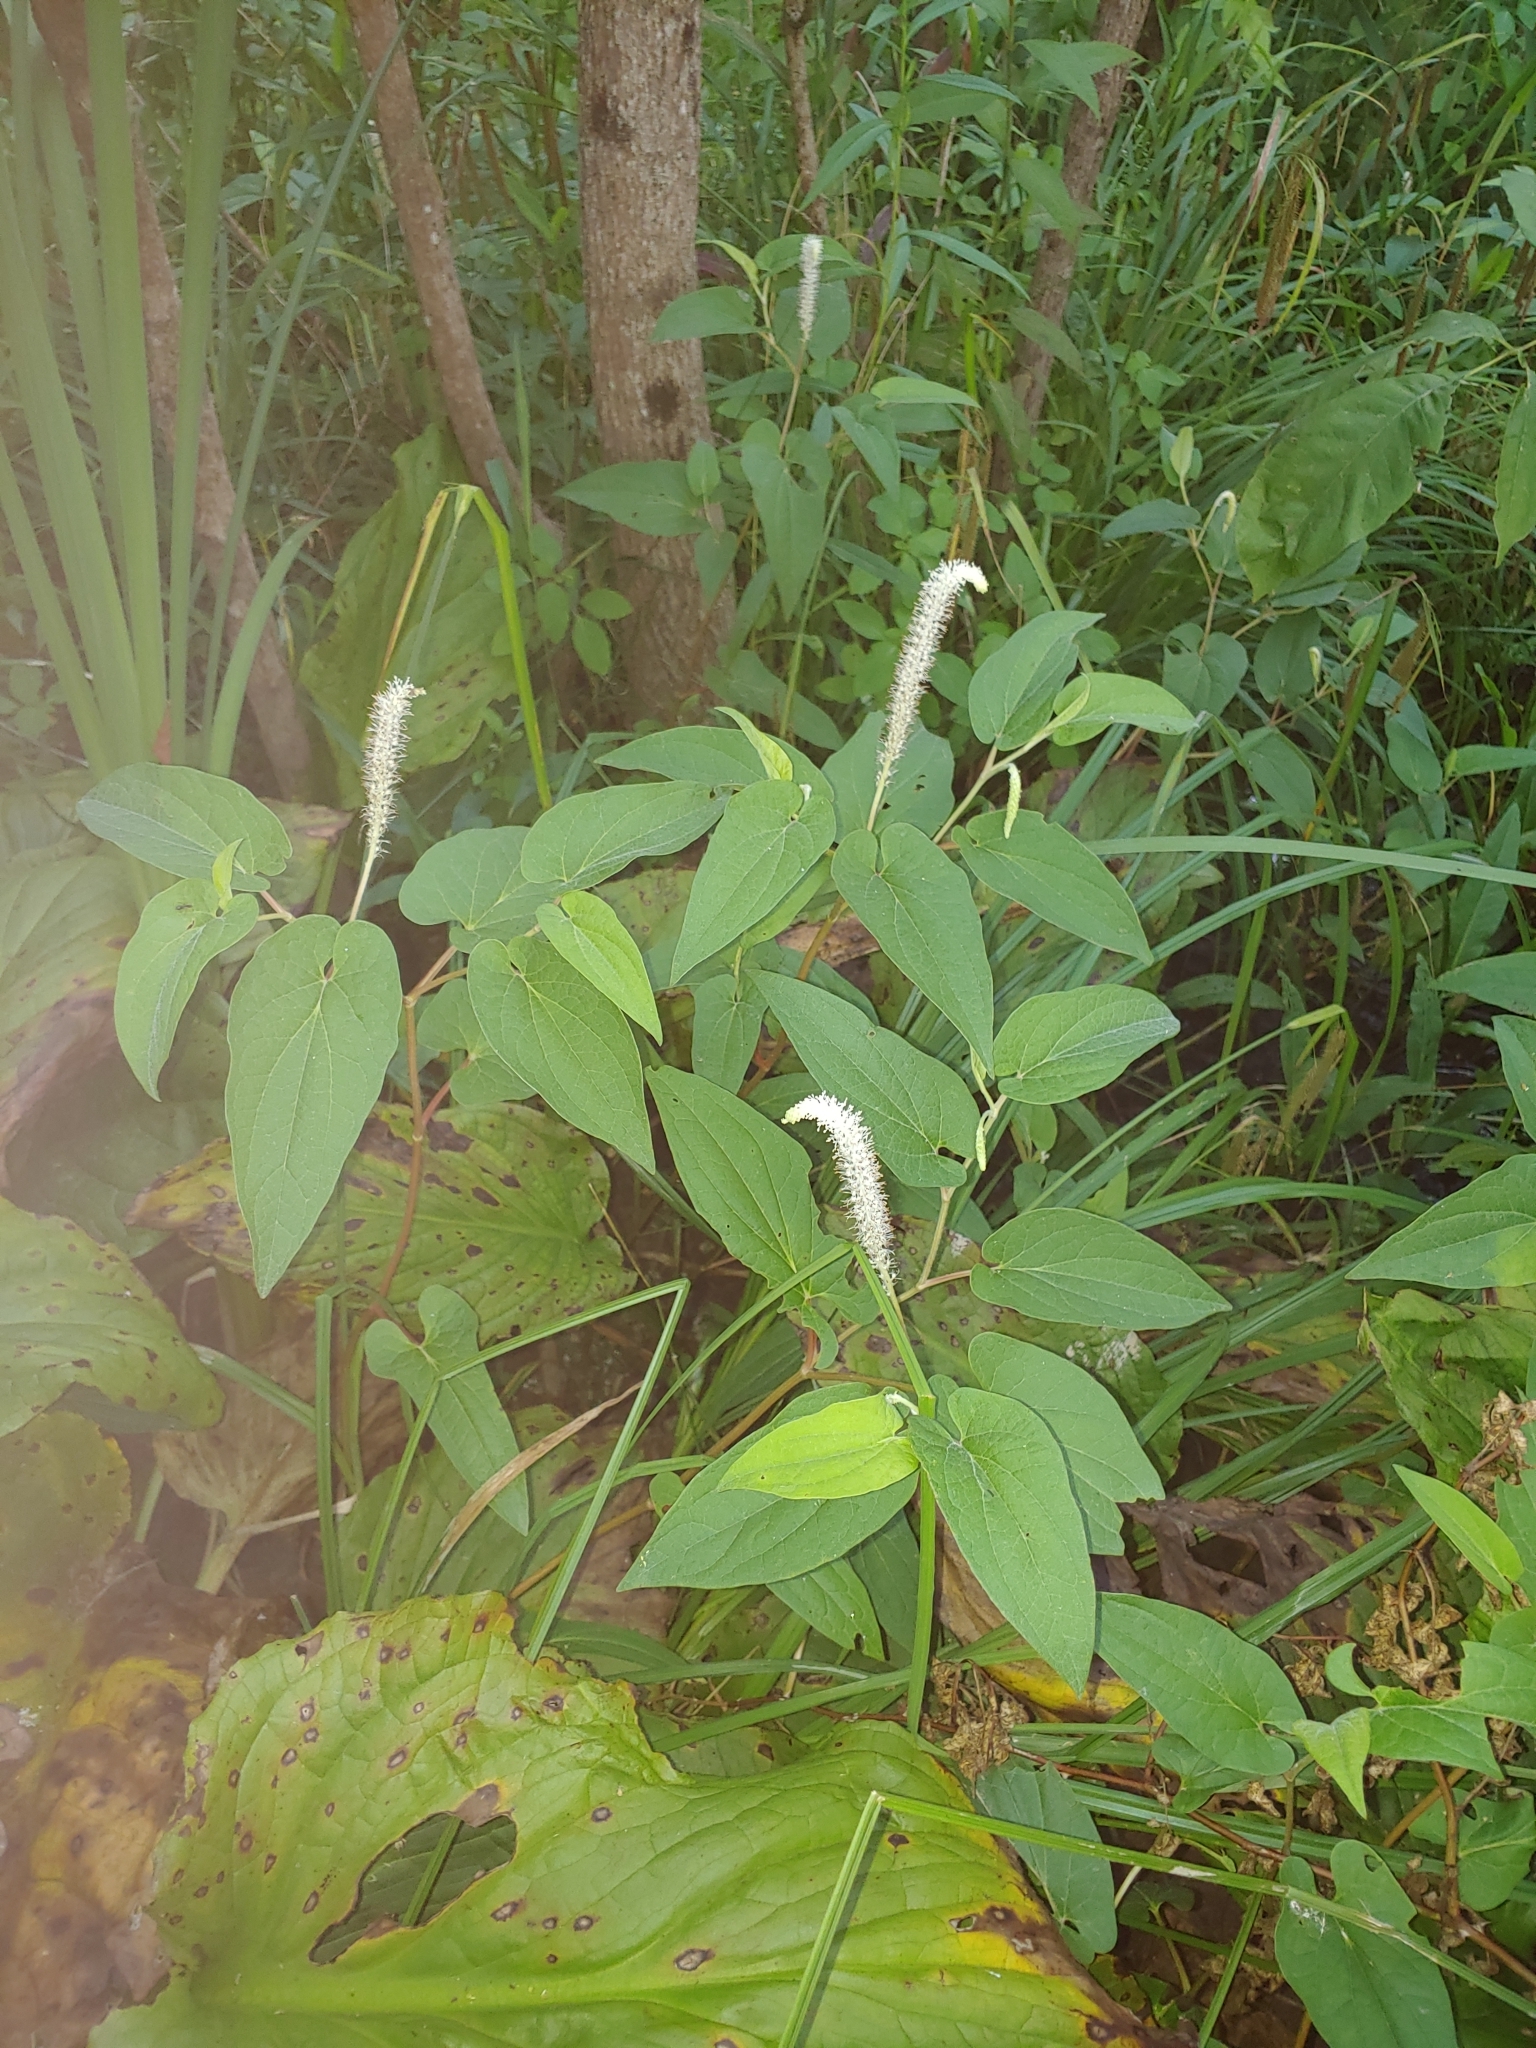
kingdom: Plantae
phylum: Tracheophyta
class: Magnoliopsida
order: Piperales
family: Saururaceae
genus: Saururus
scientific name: Saururus cernuus
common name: Lizard's-tail
